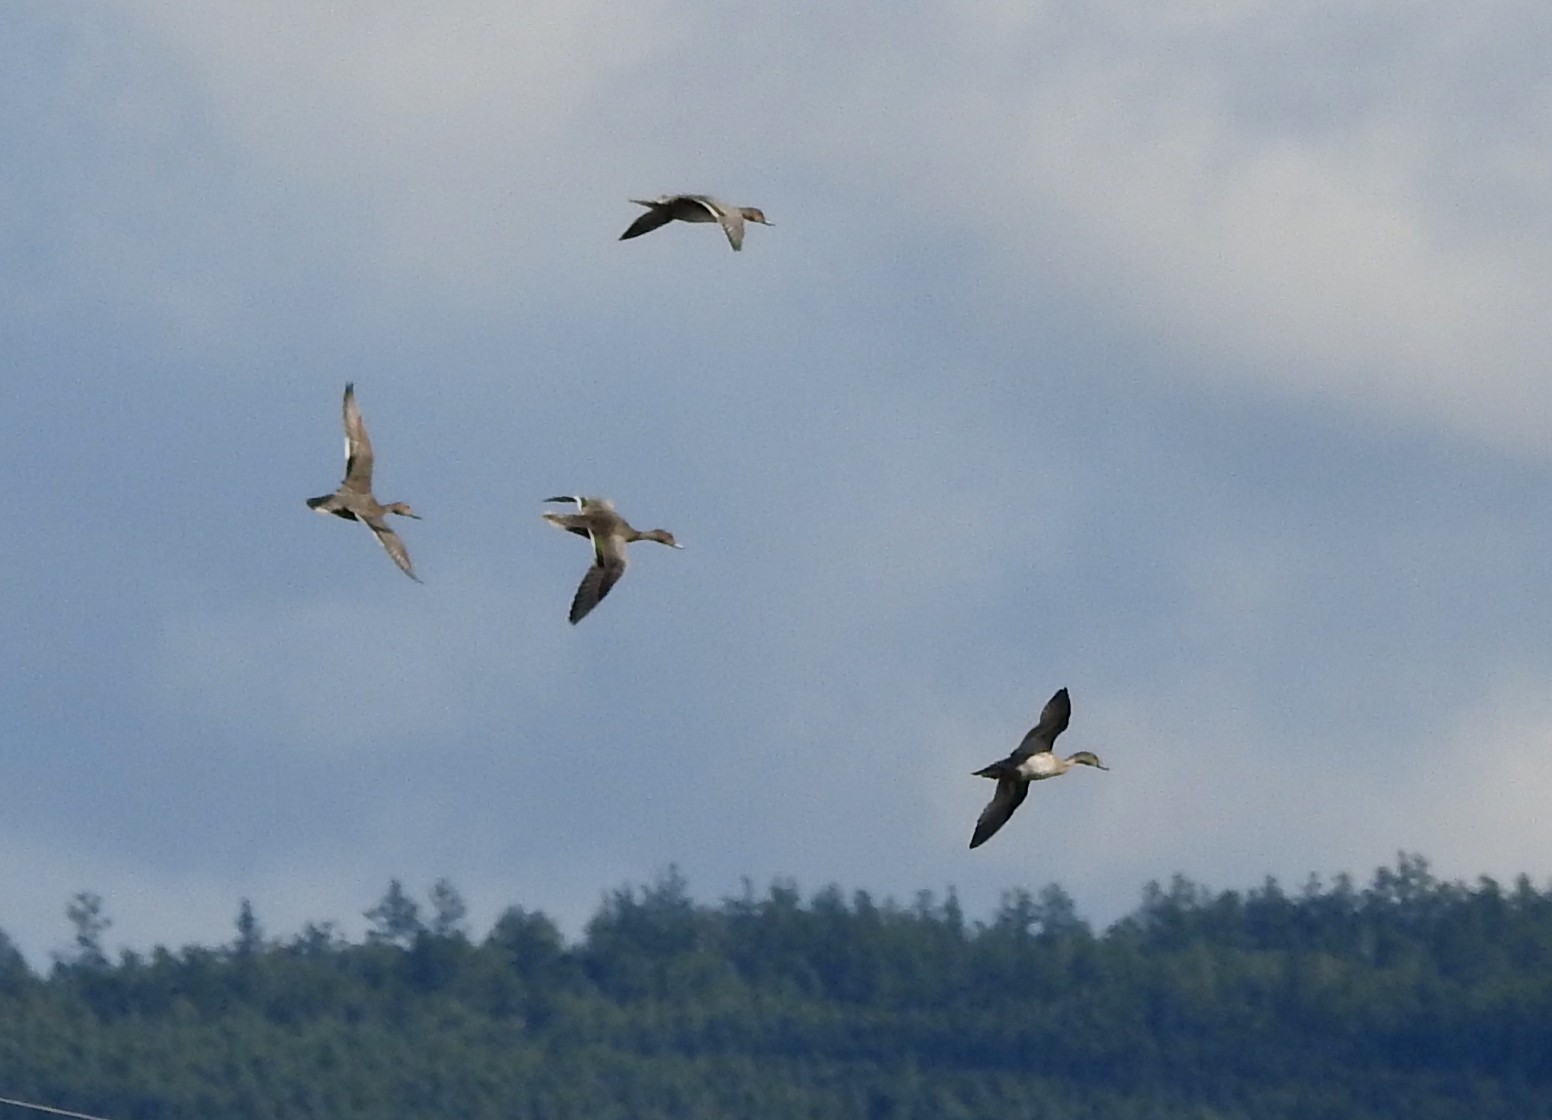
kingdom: Animalia
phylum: Chordata
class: Aves
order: Anseriformes
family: Anatidae
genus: Mareca
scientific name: Mareca penelope
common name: Eurasian wigeon
